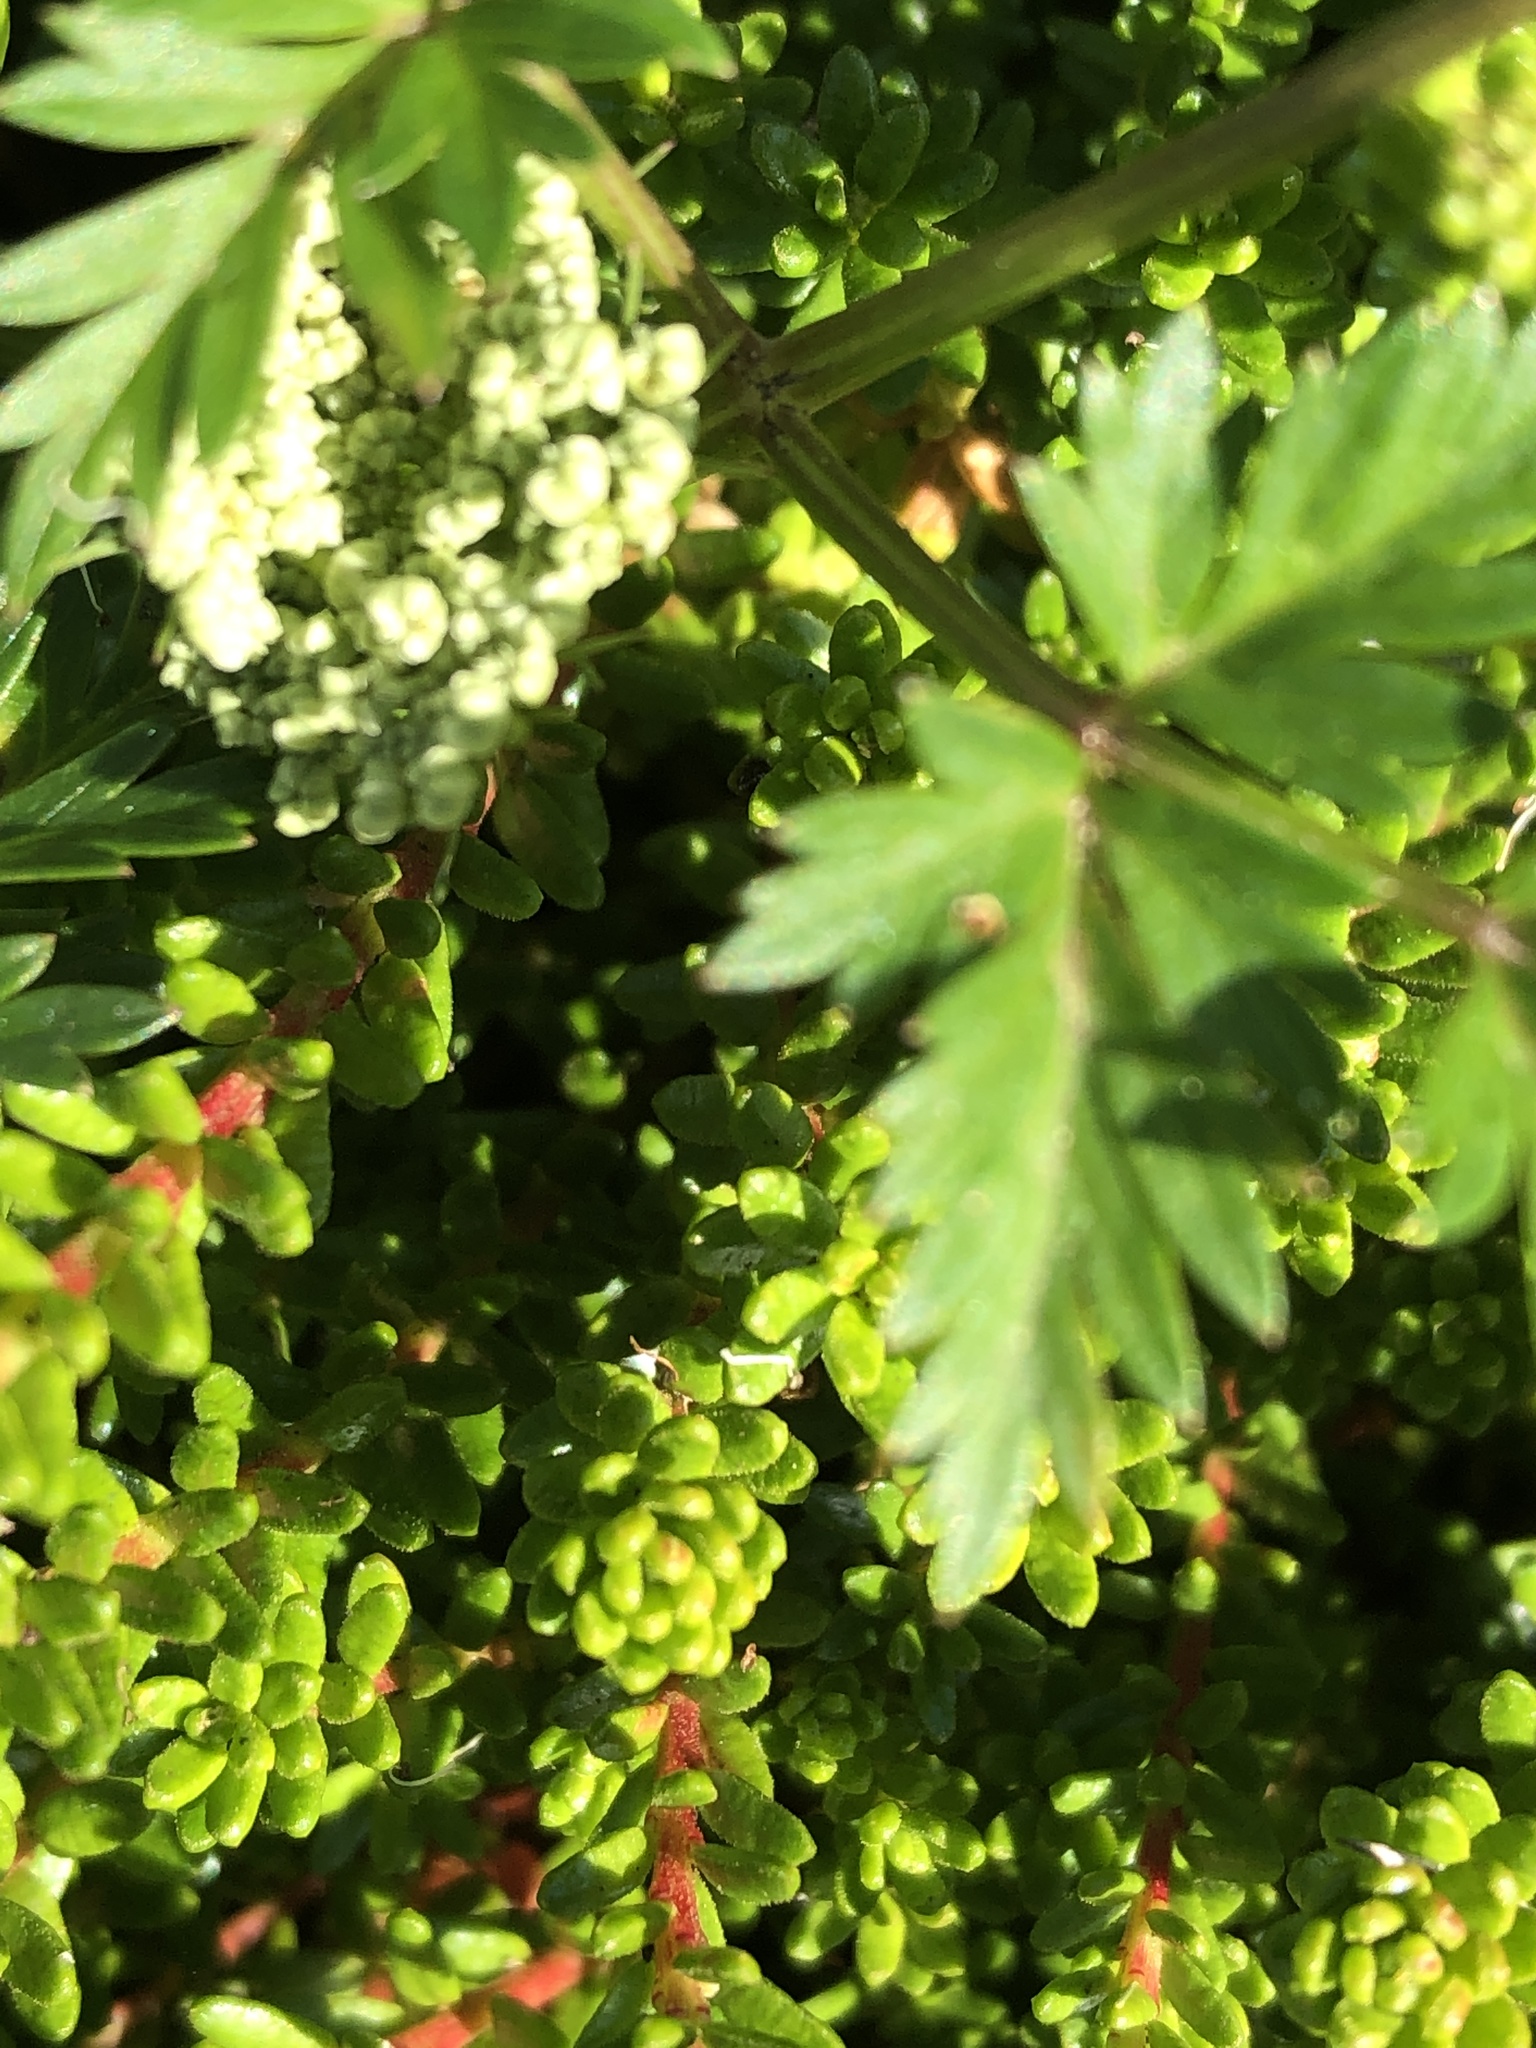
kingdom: Plantae
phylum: Tracheophyta
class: Magnoliopsida
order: Apiales
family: Apiaceae
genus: Kreidion
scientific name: Kreidion chinensis
